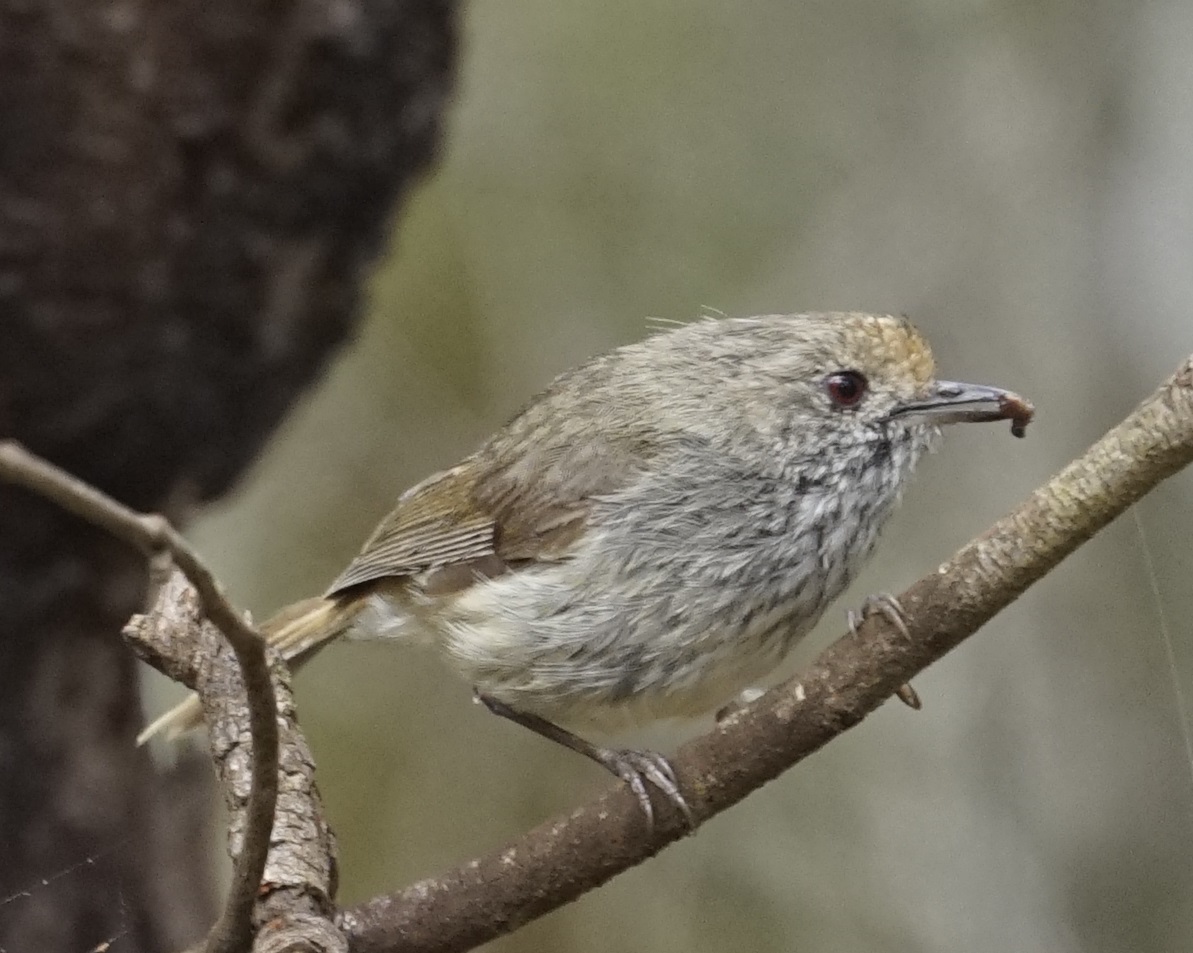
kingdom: Animalia
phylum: Chordata
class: Aves
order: Passeriformes
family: Acanthizidae
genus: Acanthiza
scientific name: Acanthiza pusilla
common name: Brown thornbill
